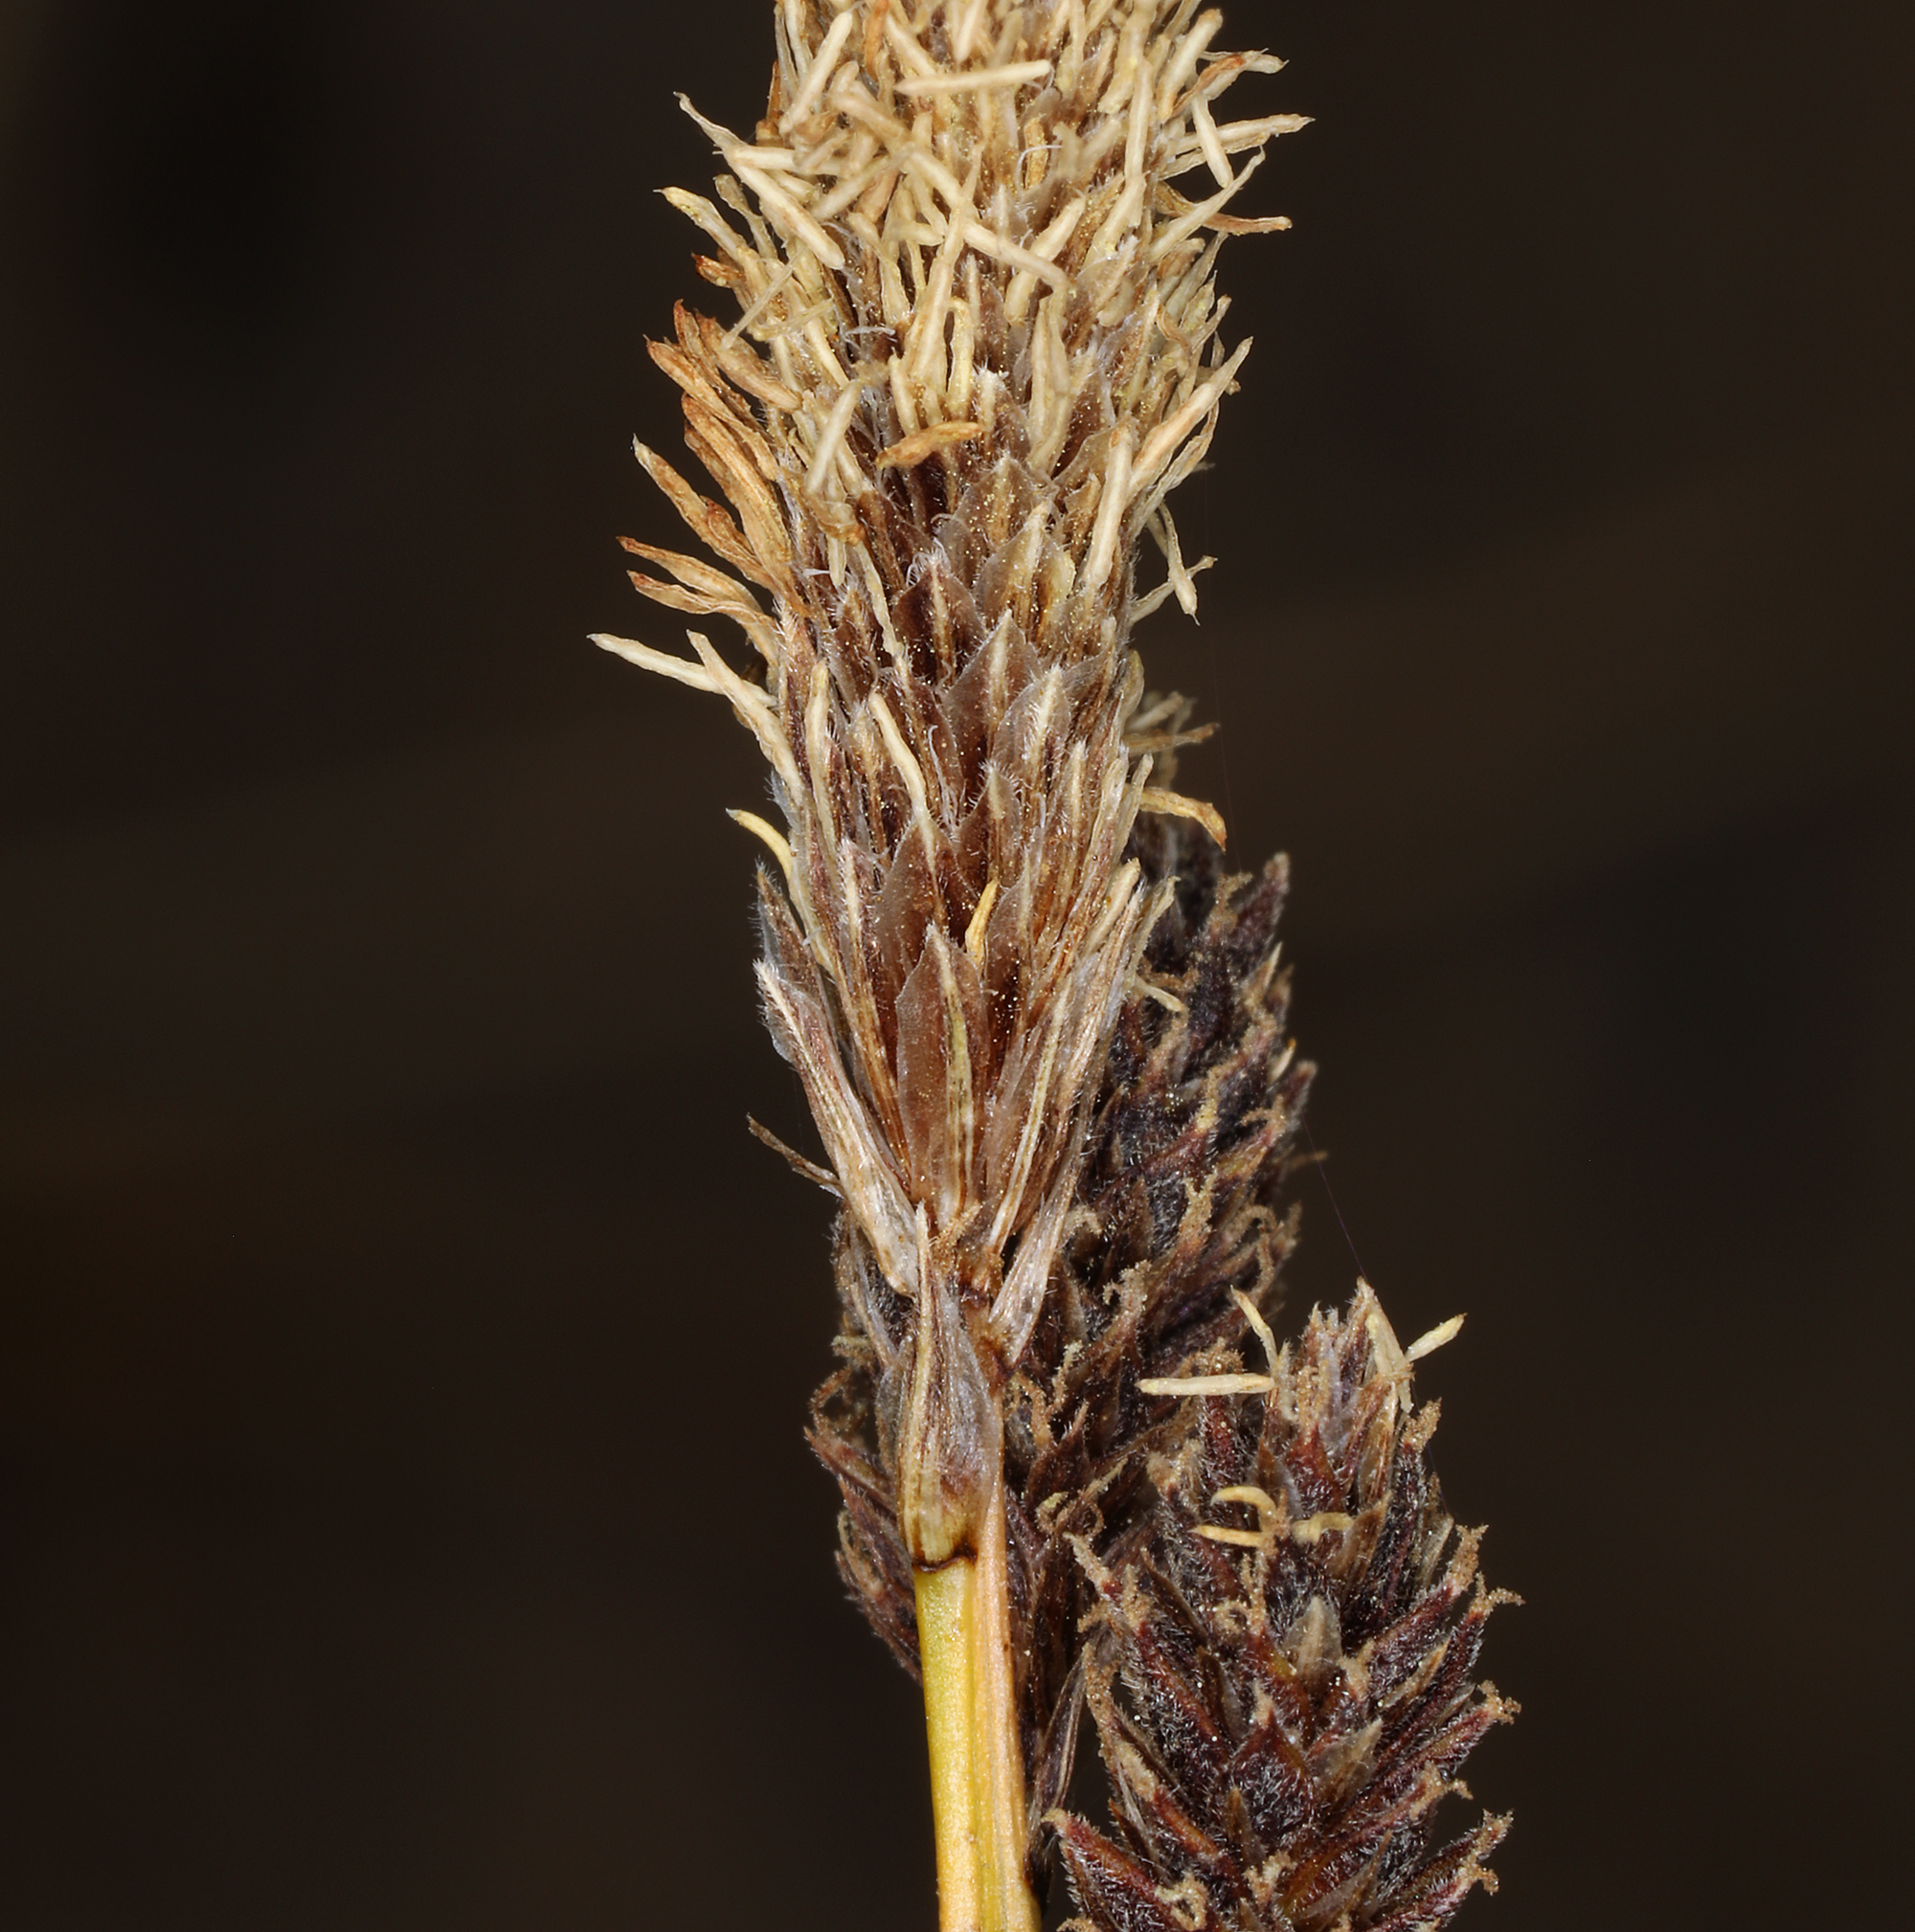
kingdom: Plantae
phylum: Tracheophyta
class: Liliopsida
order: Poales
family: Cyperaceae
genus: Carex
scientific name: Carex congdonii
